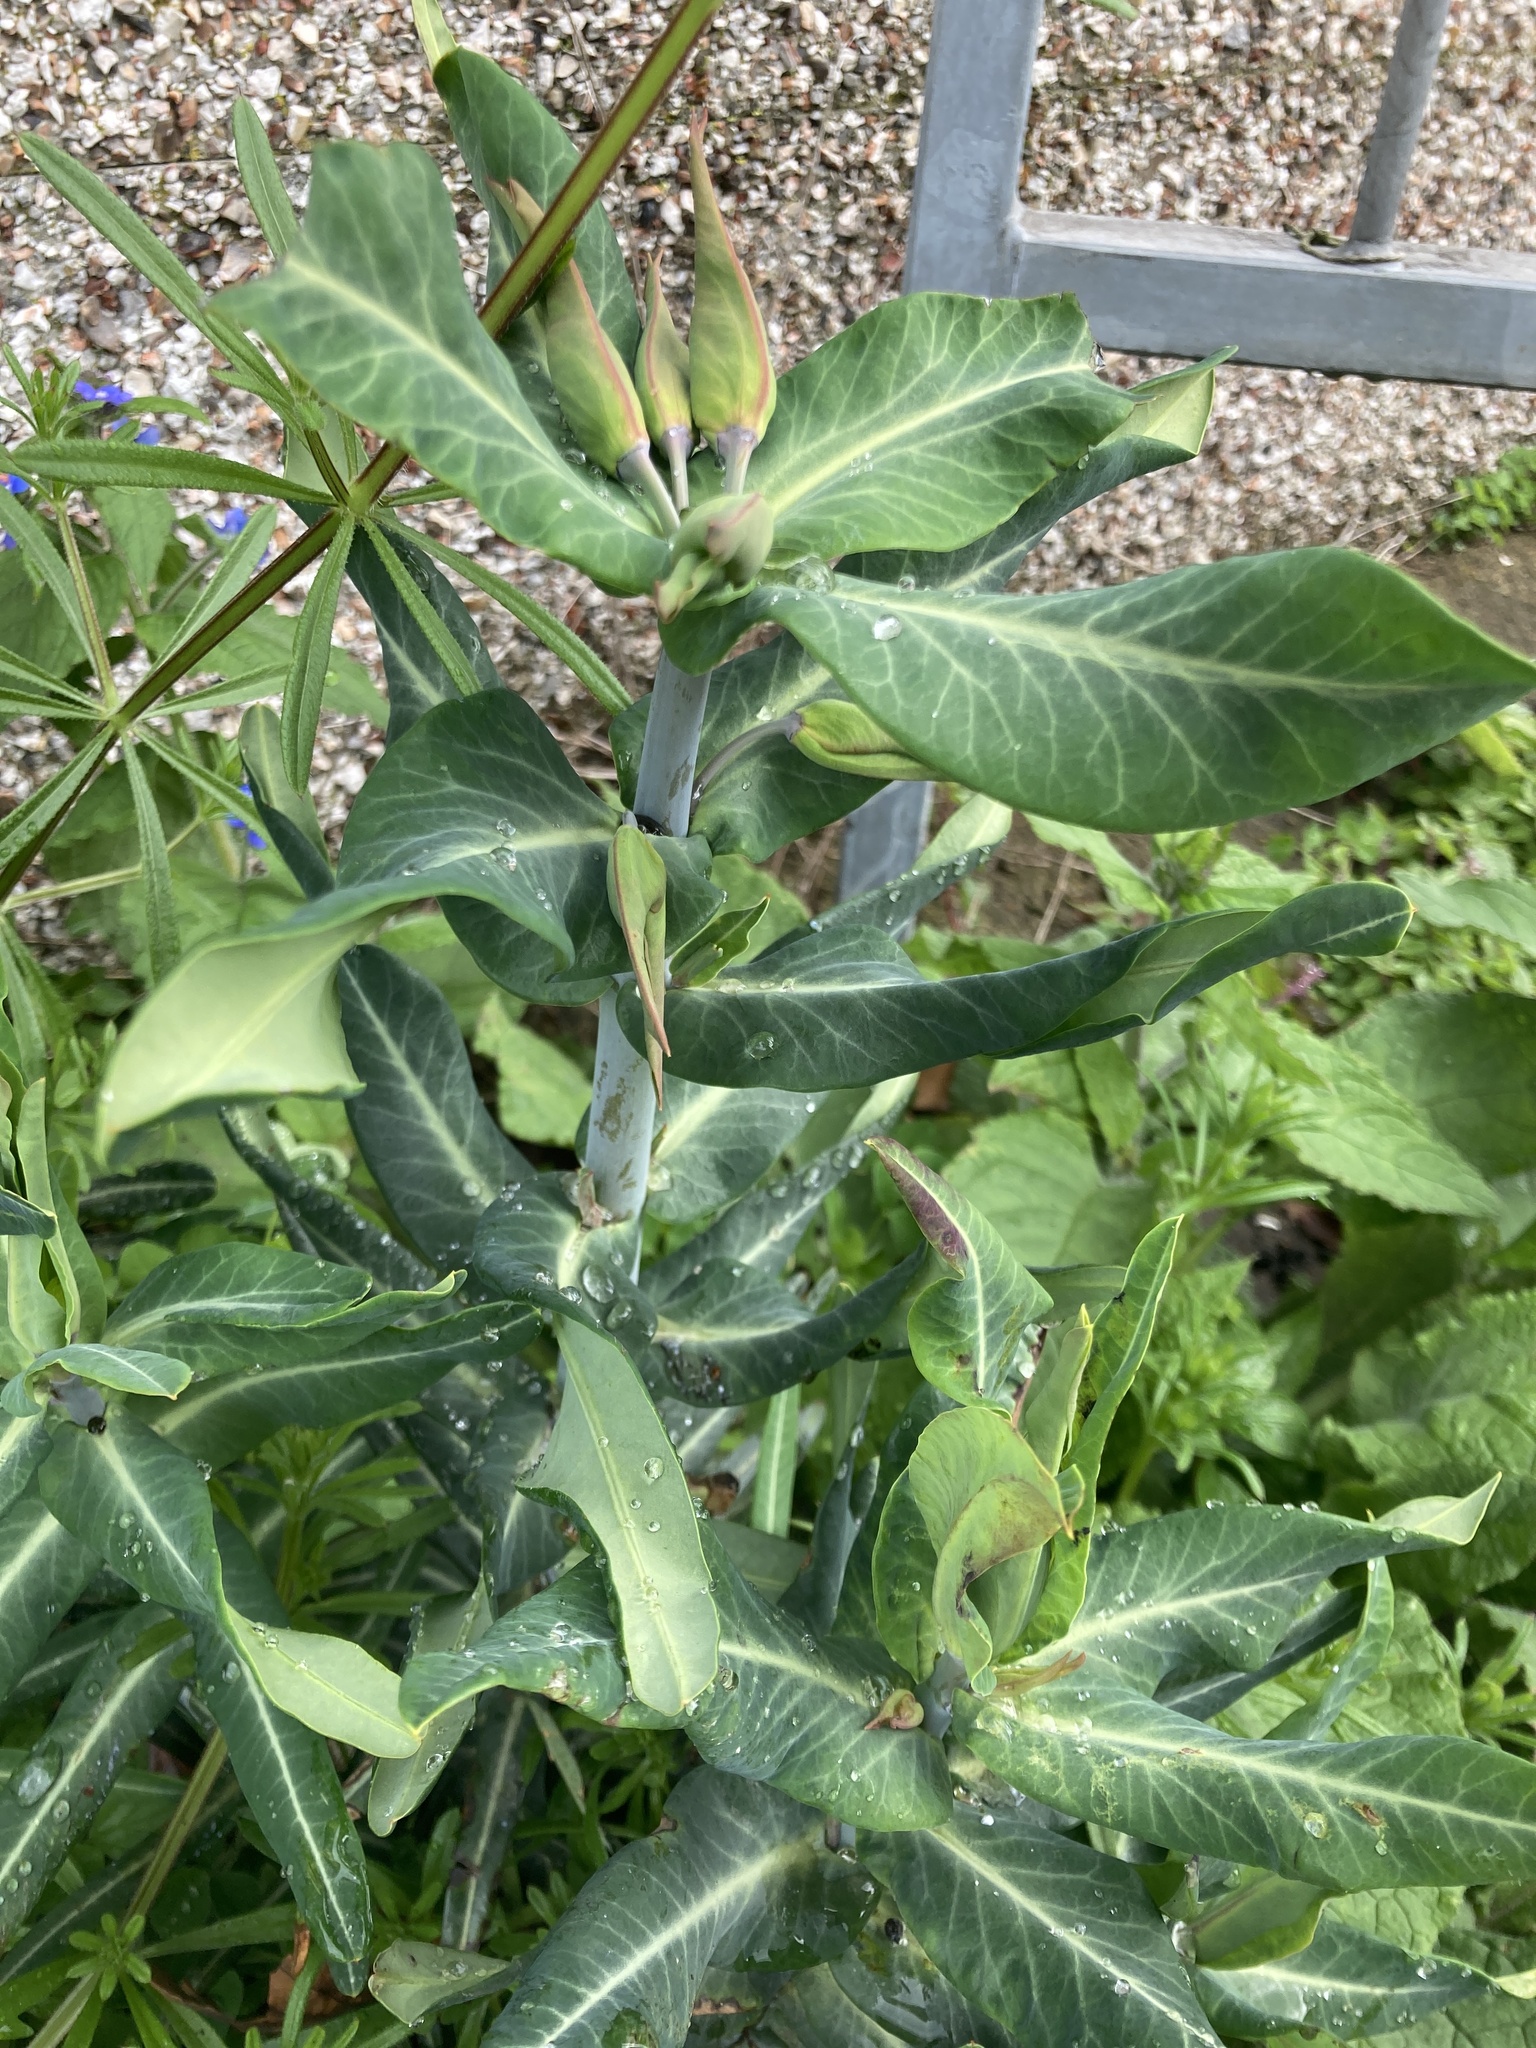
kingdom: Plantae
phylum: Tracheophyta
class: Magnoliopsida
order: Malpighiales
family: Euphorbiaceae
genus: Euphorbia
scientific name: Euphorbia lathyris
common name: Caper spurge
